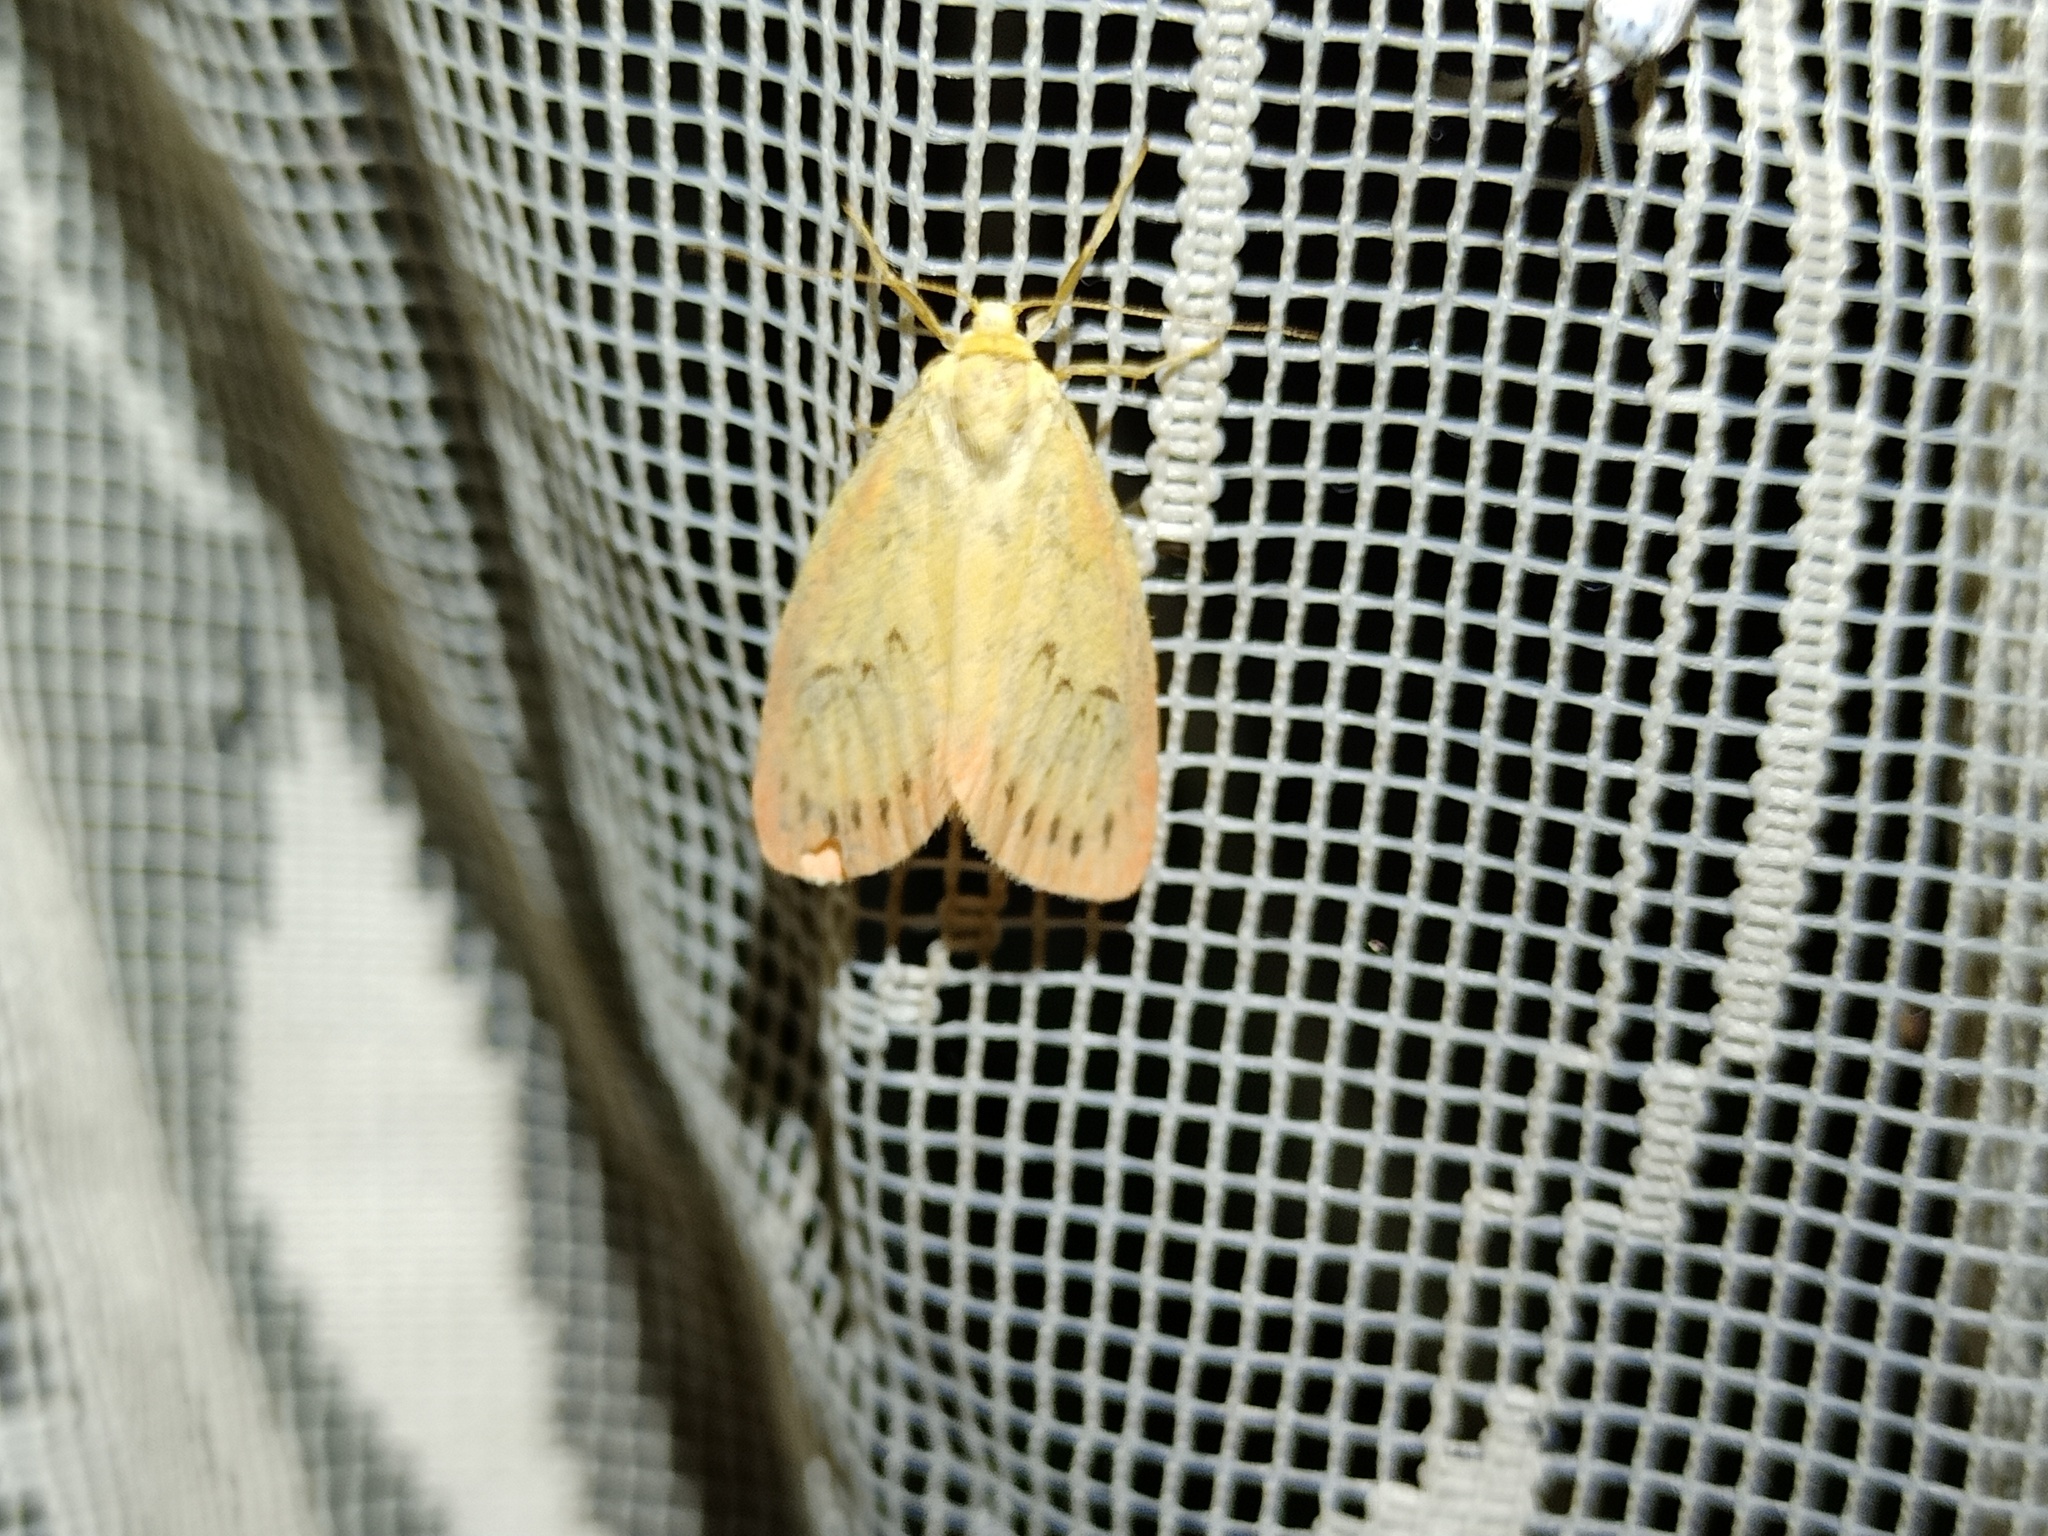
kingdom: Animalia
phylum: Arthropoda
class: Insecta
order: Lepidoptera
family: Erebidae
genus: Miltochrista
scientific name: Miltochrista miniata
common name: Rosy footman
